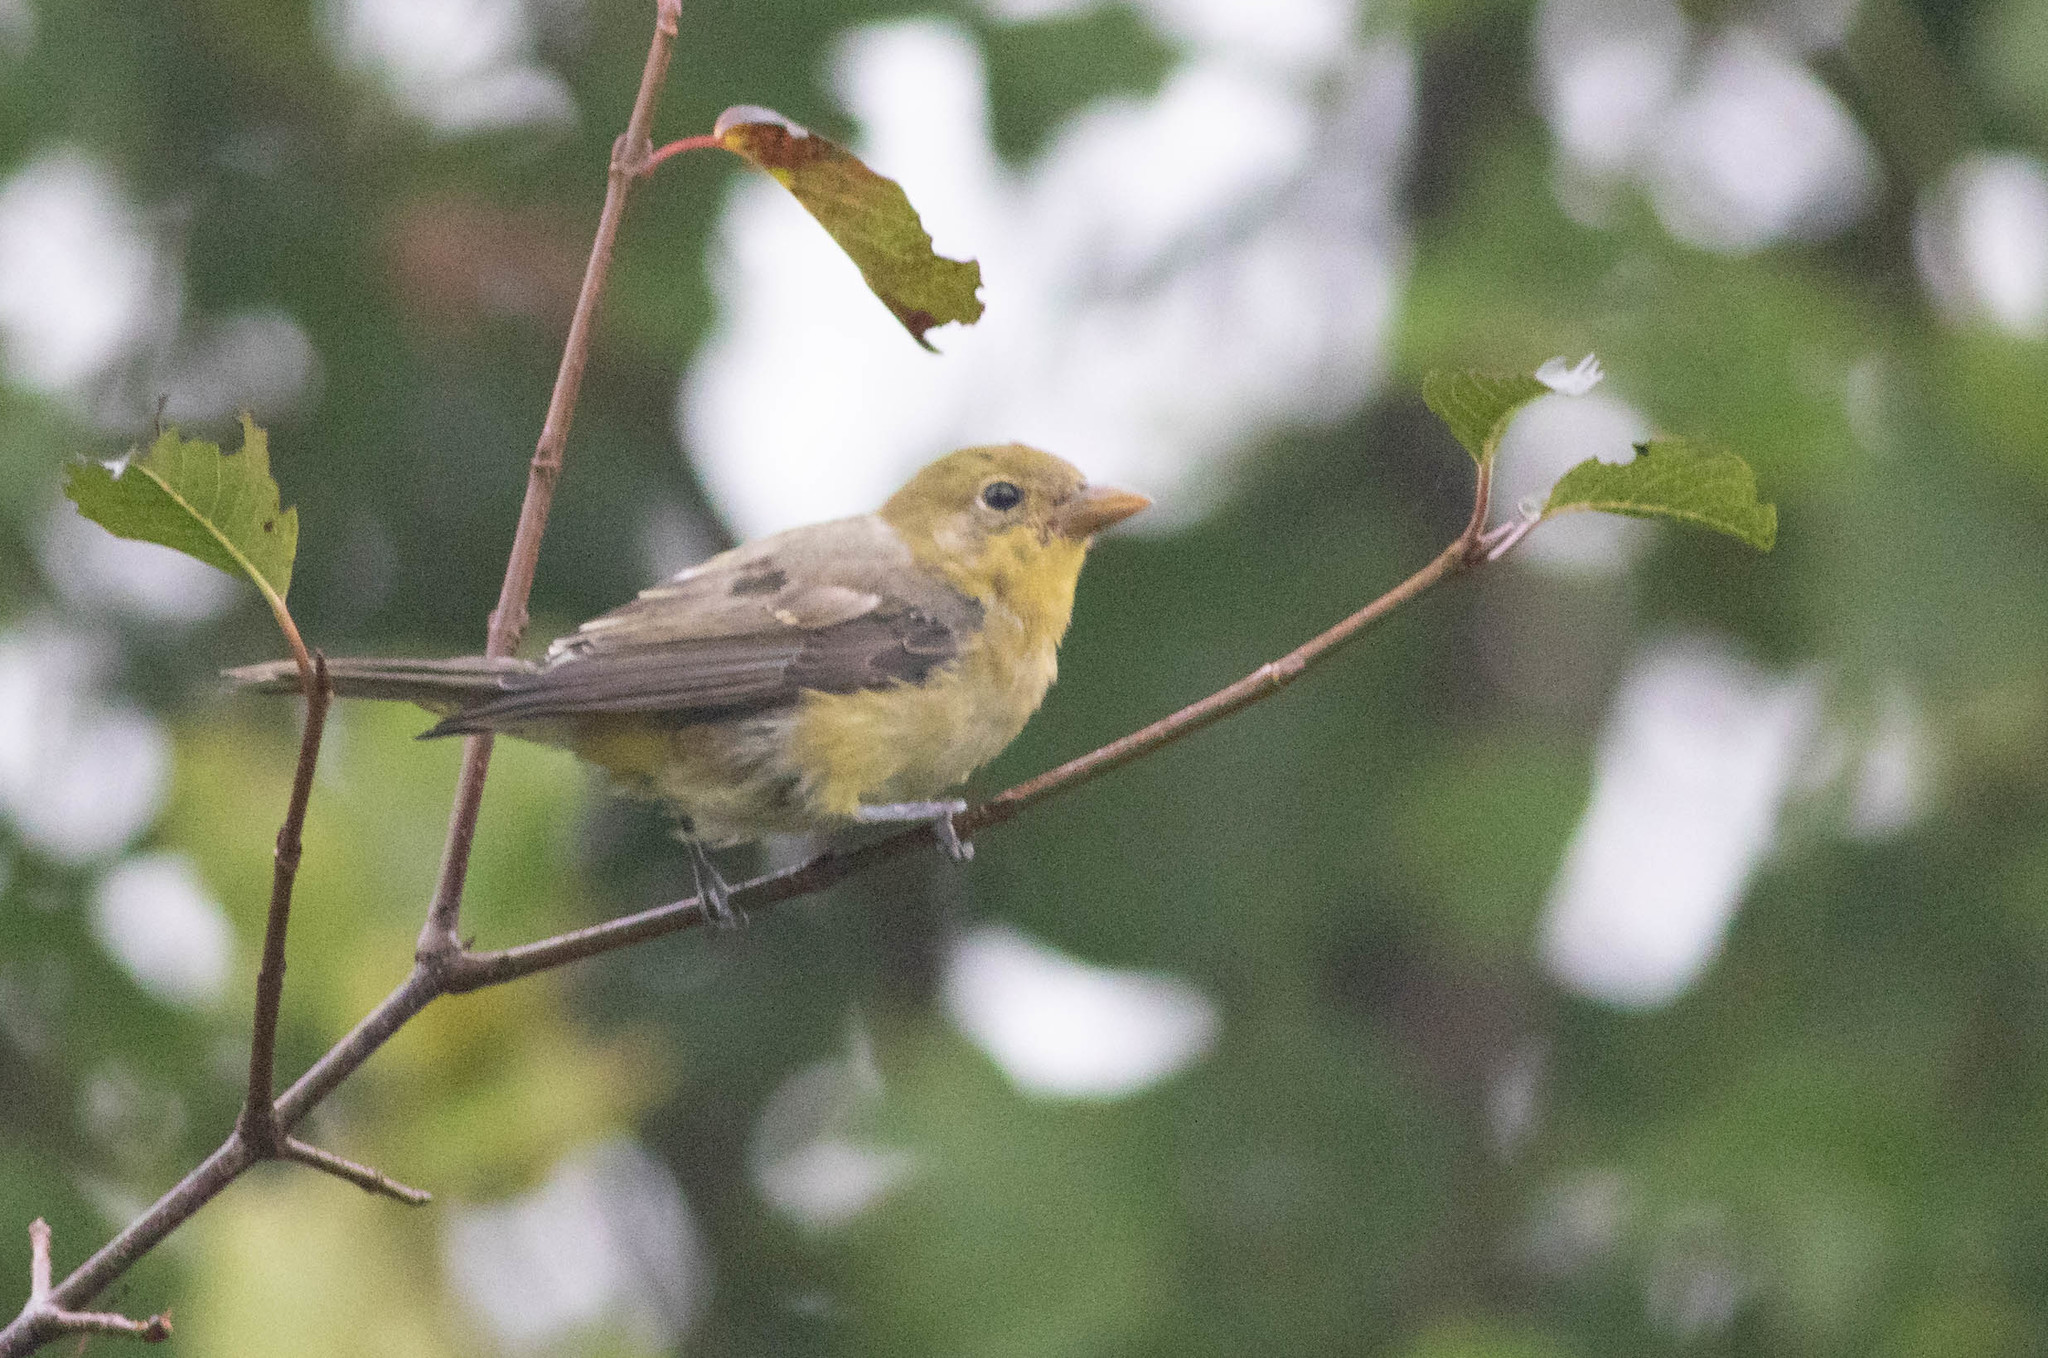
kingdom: Animalia
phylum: Chordata
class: Aves
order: Passeriformes
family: Cardinalidae
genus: Piranga
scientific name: Piranga olivacea
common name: Scarlet tanager
